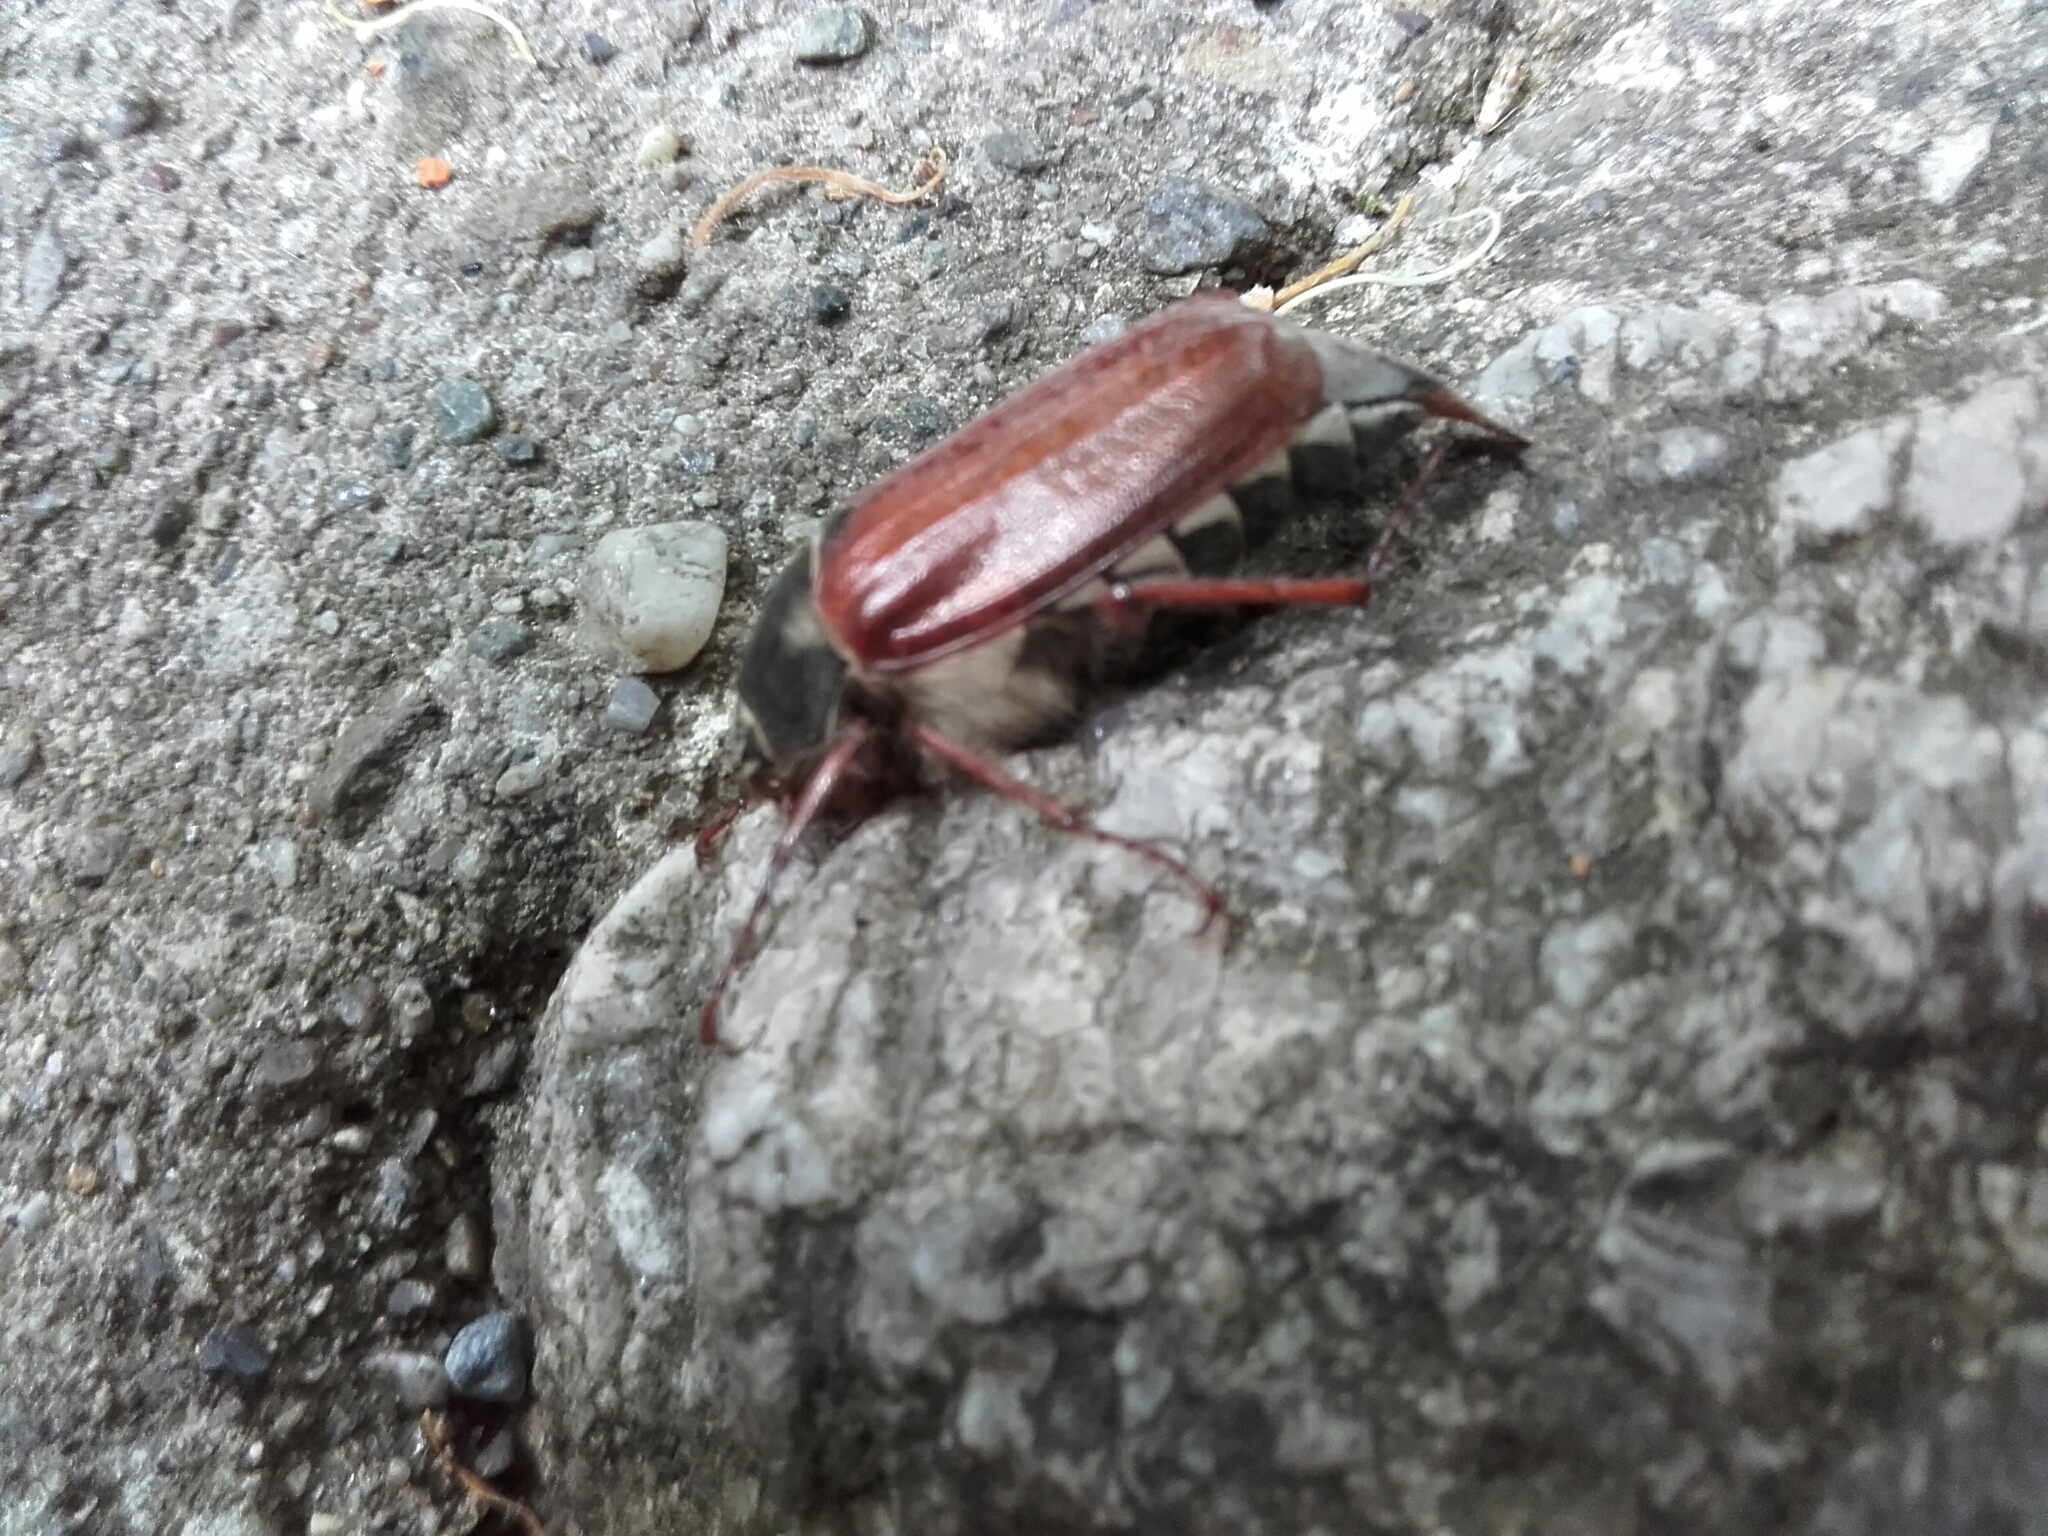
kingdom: Animalia
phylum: Arthropoda
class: Insecta
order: Coleoptera
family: Scarabaeidae
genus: Melolontha
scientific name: Melolontha melolontha
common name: Cockchafer maybeetle
